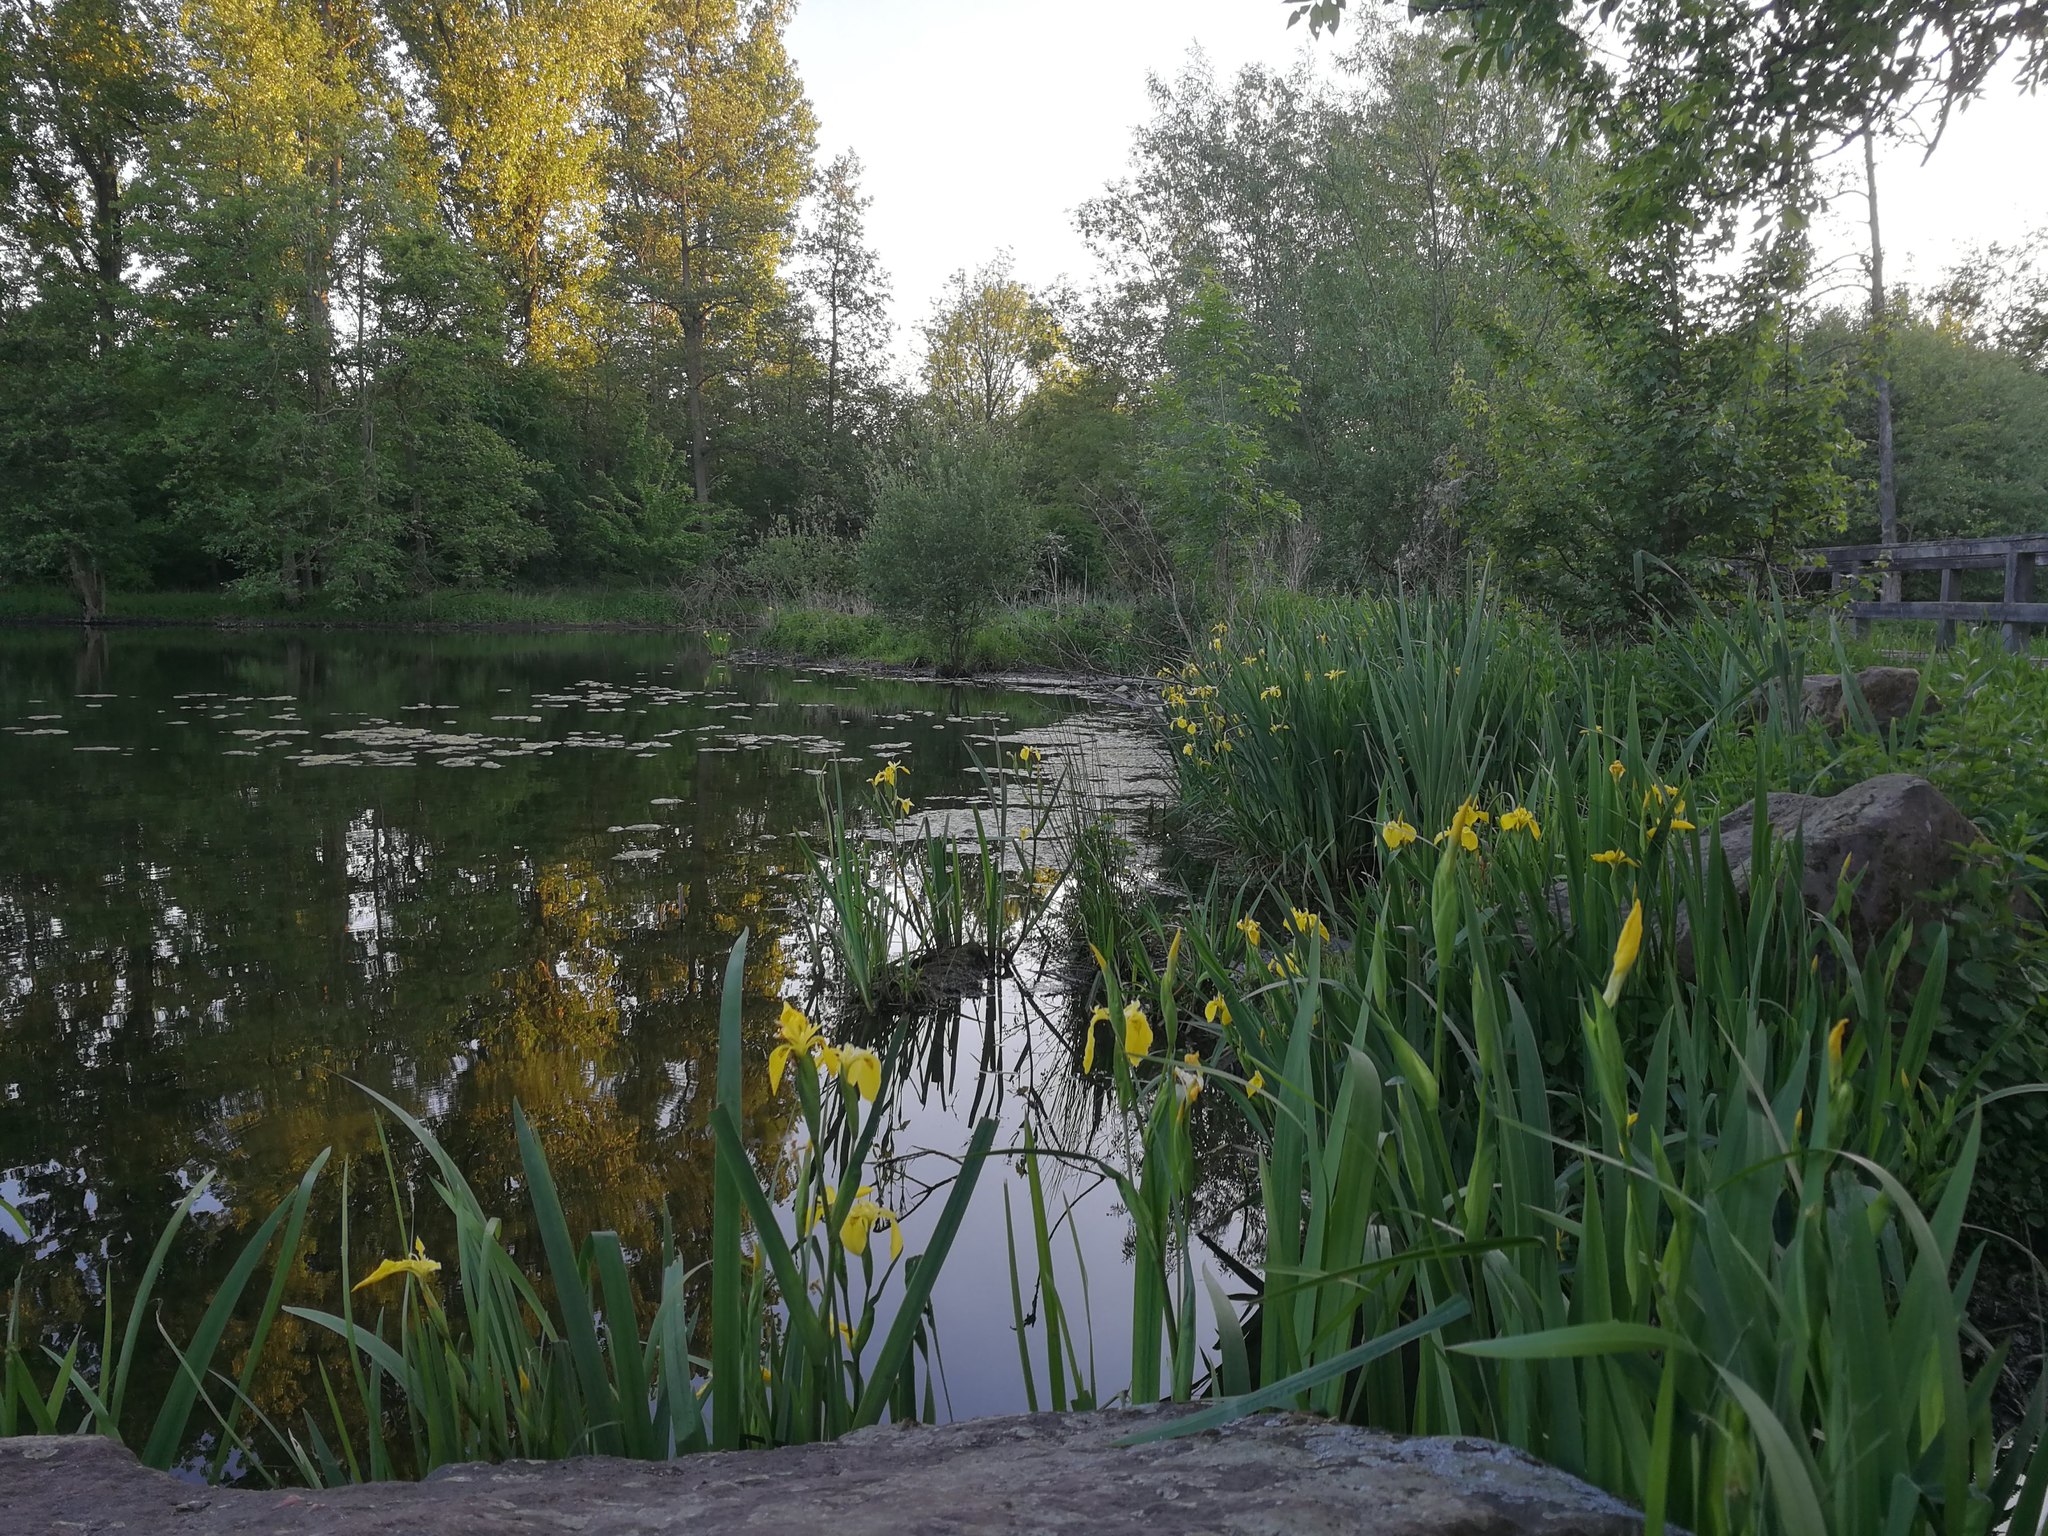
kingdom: Plantae
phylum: Tracheophyta
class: Liliopsida
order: Asparagales
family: Iridaceae
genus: Iris
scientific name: Iris pseudacorus
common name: Yellow flag
